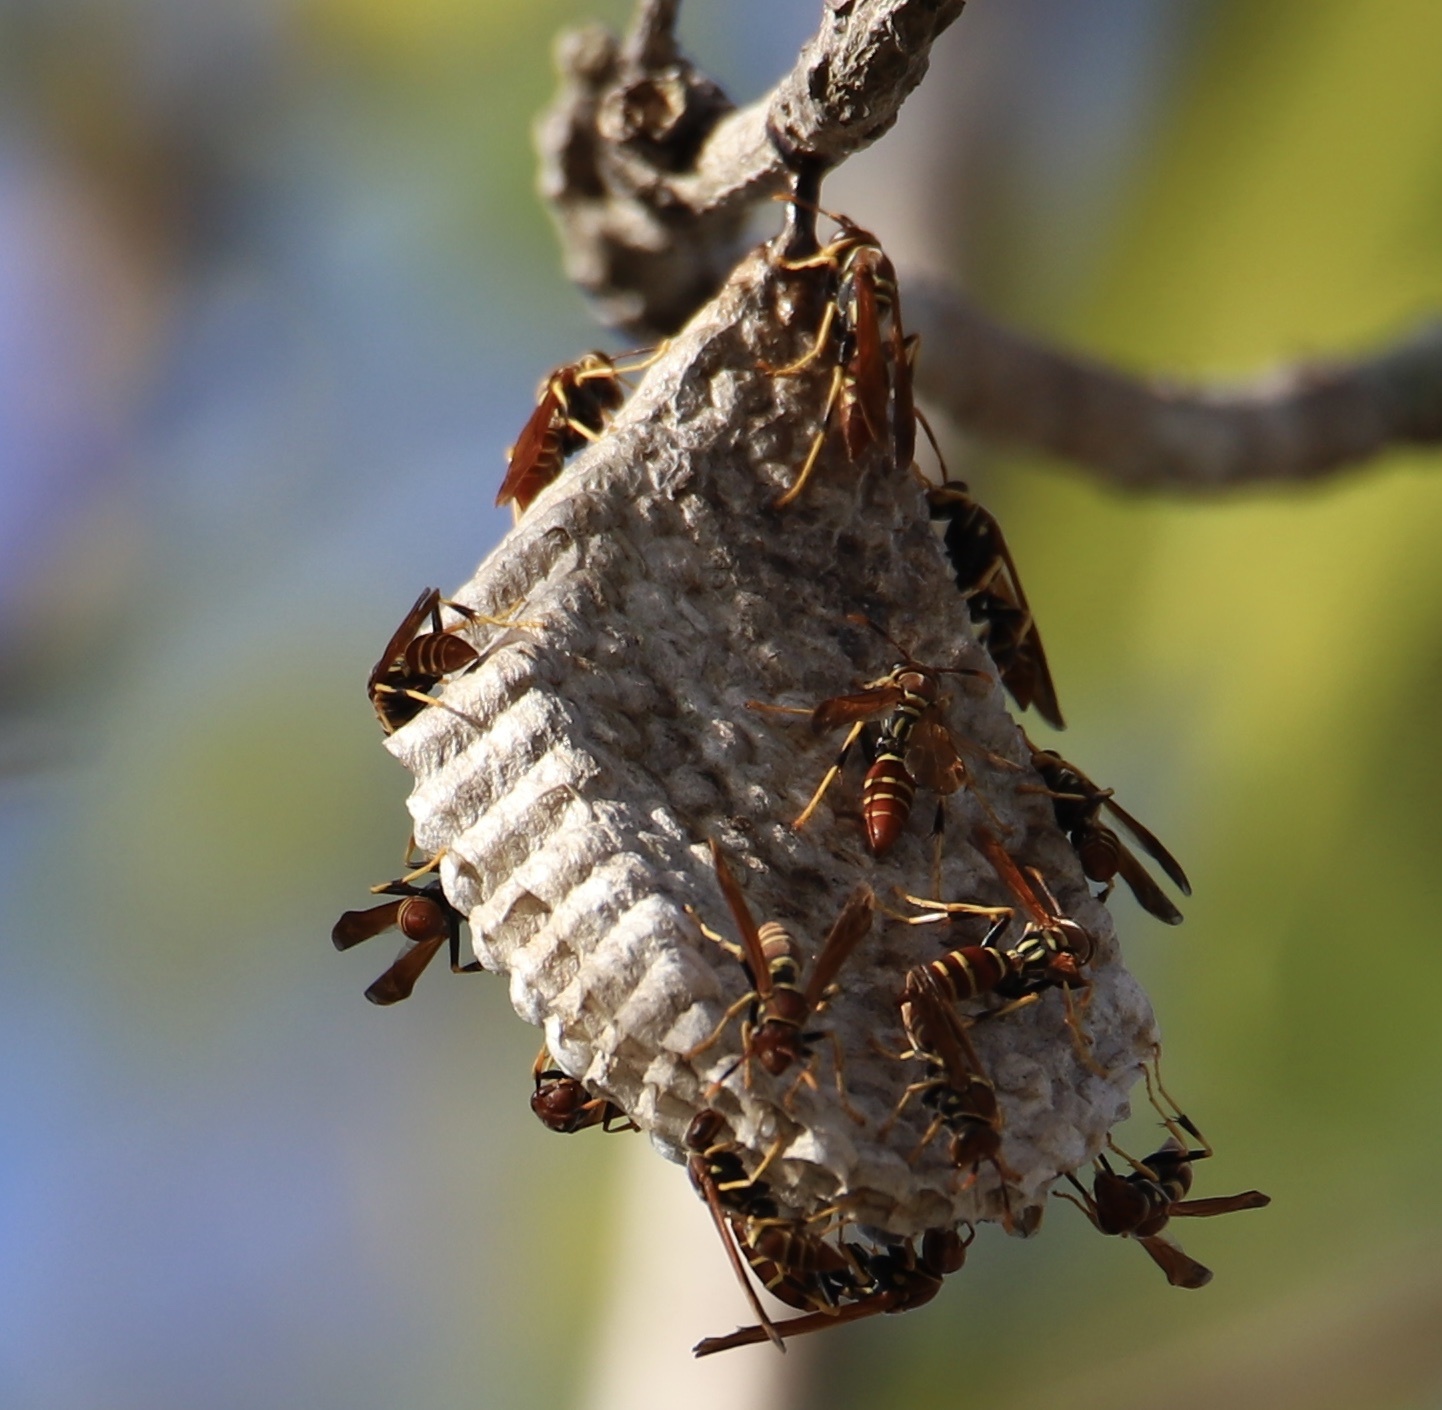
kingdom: Animalia
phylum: Arthropoda
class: Insecta
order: Hymenoptera
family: Eumenidae
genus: Polistes
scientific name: Polistes crinitus
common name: Jack spaniard
